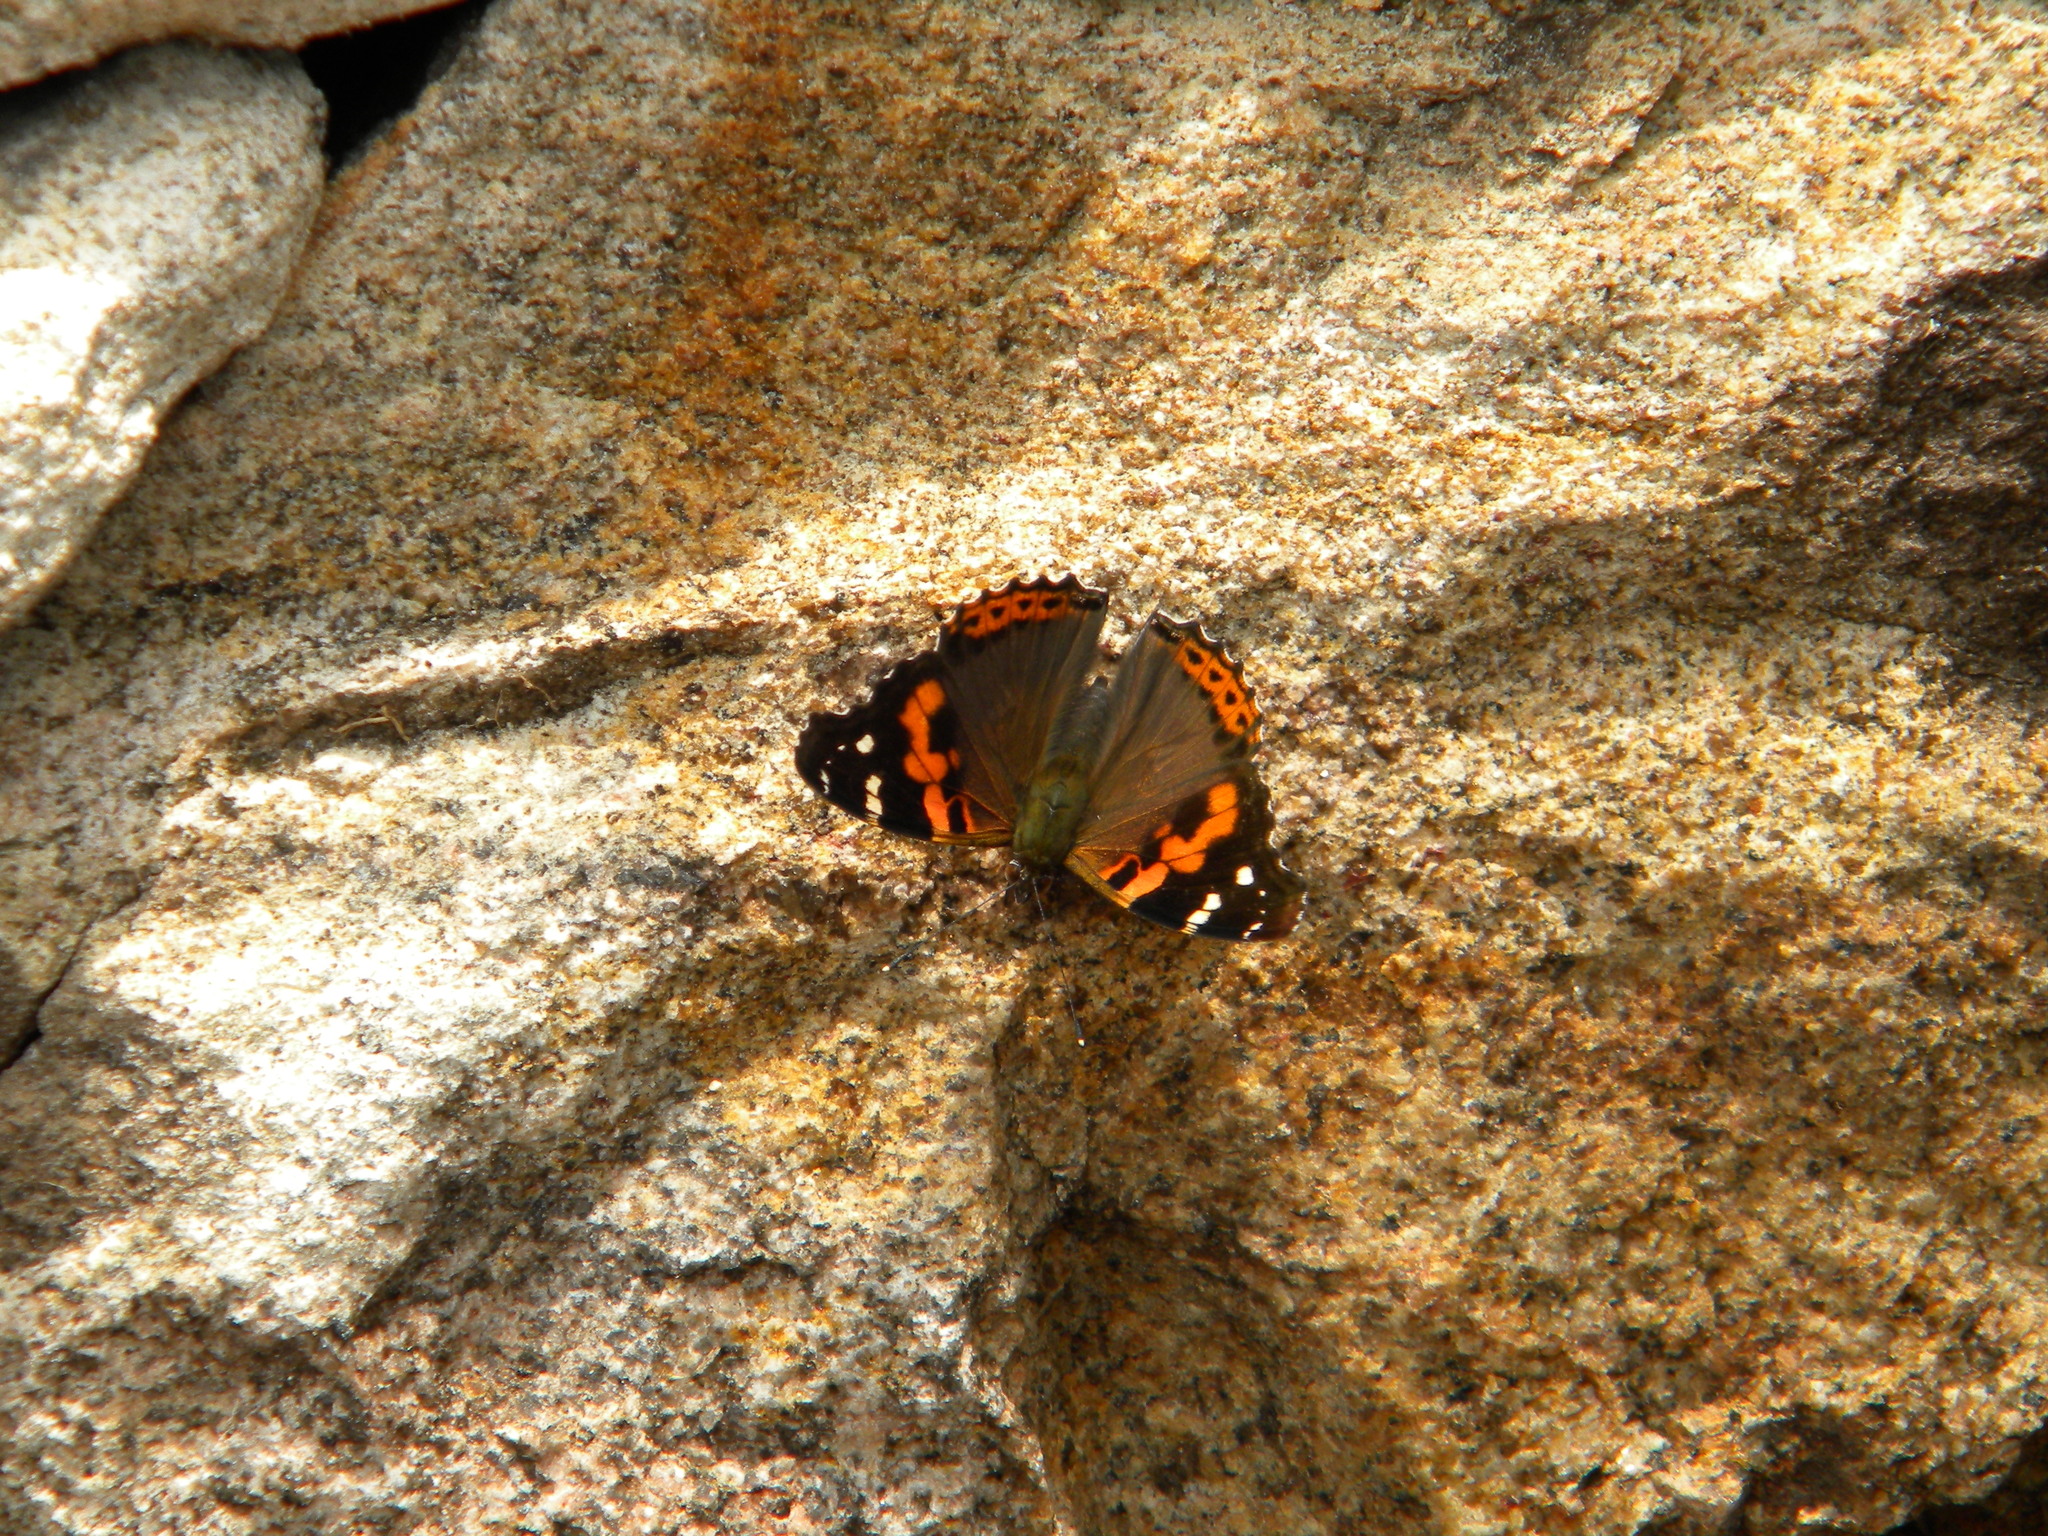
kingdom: Animalia
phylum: Arthropoda
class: Insecta
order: Lepidoptera
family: Nymphalidae
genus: Vanessa
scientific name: Vanessa indica
